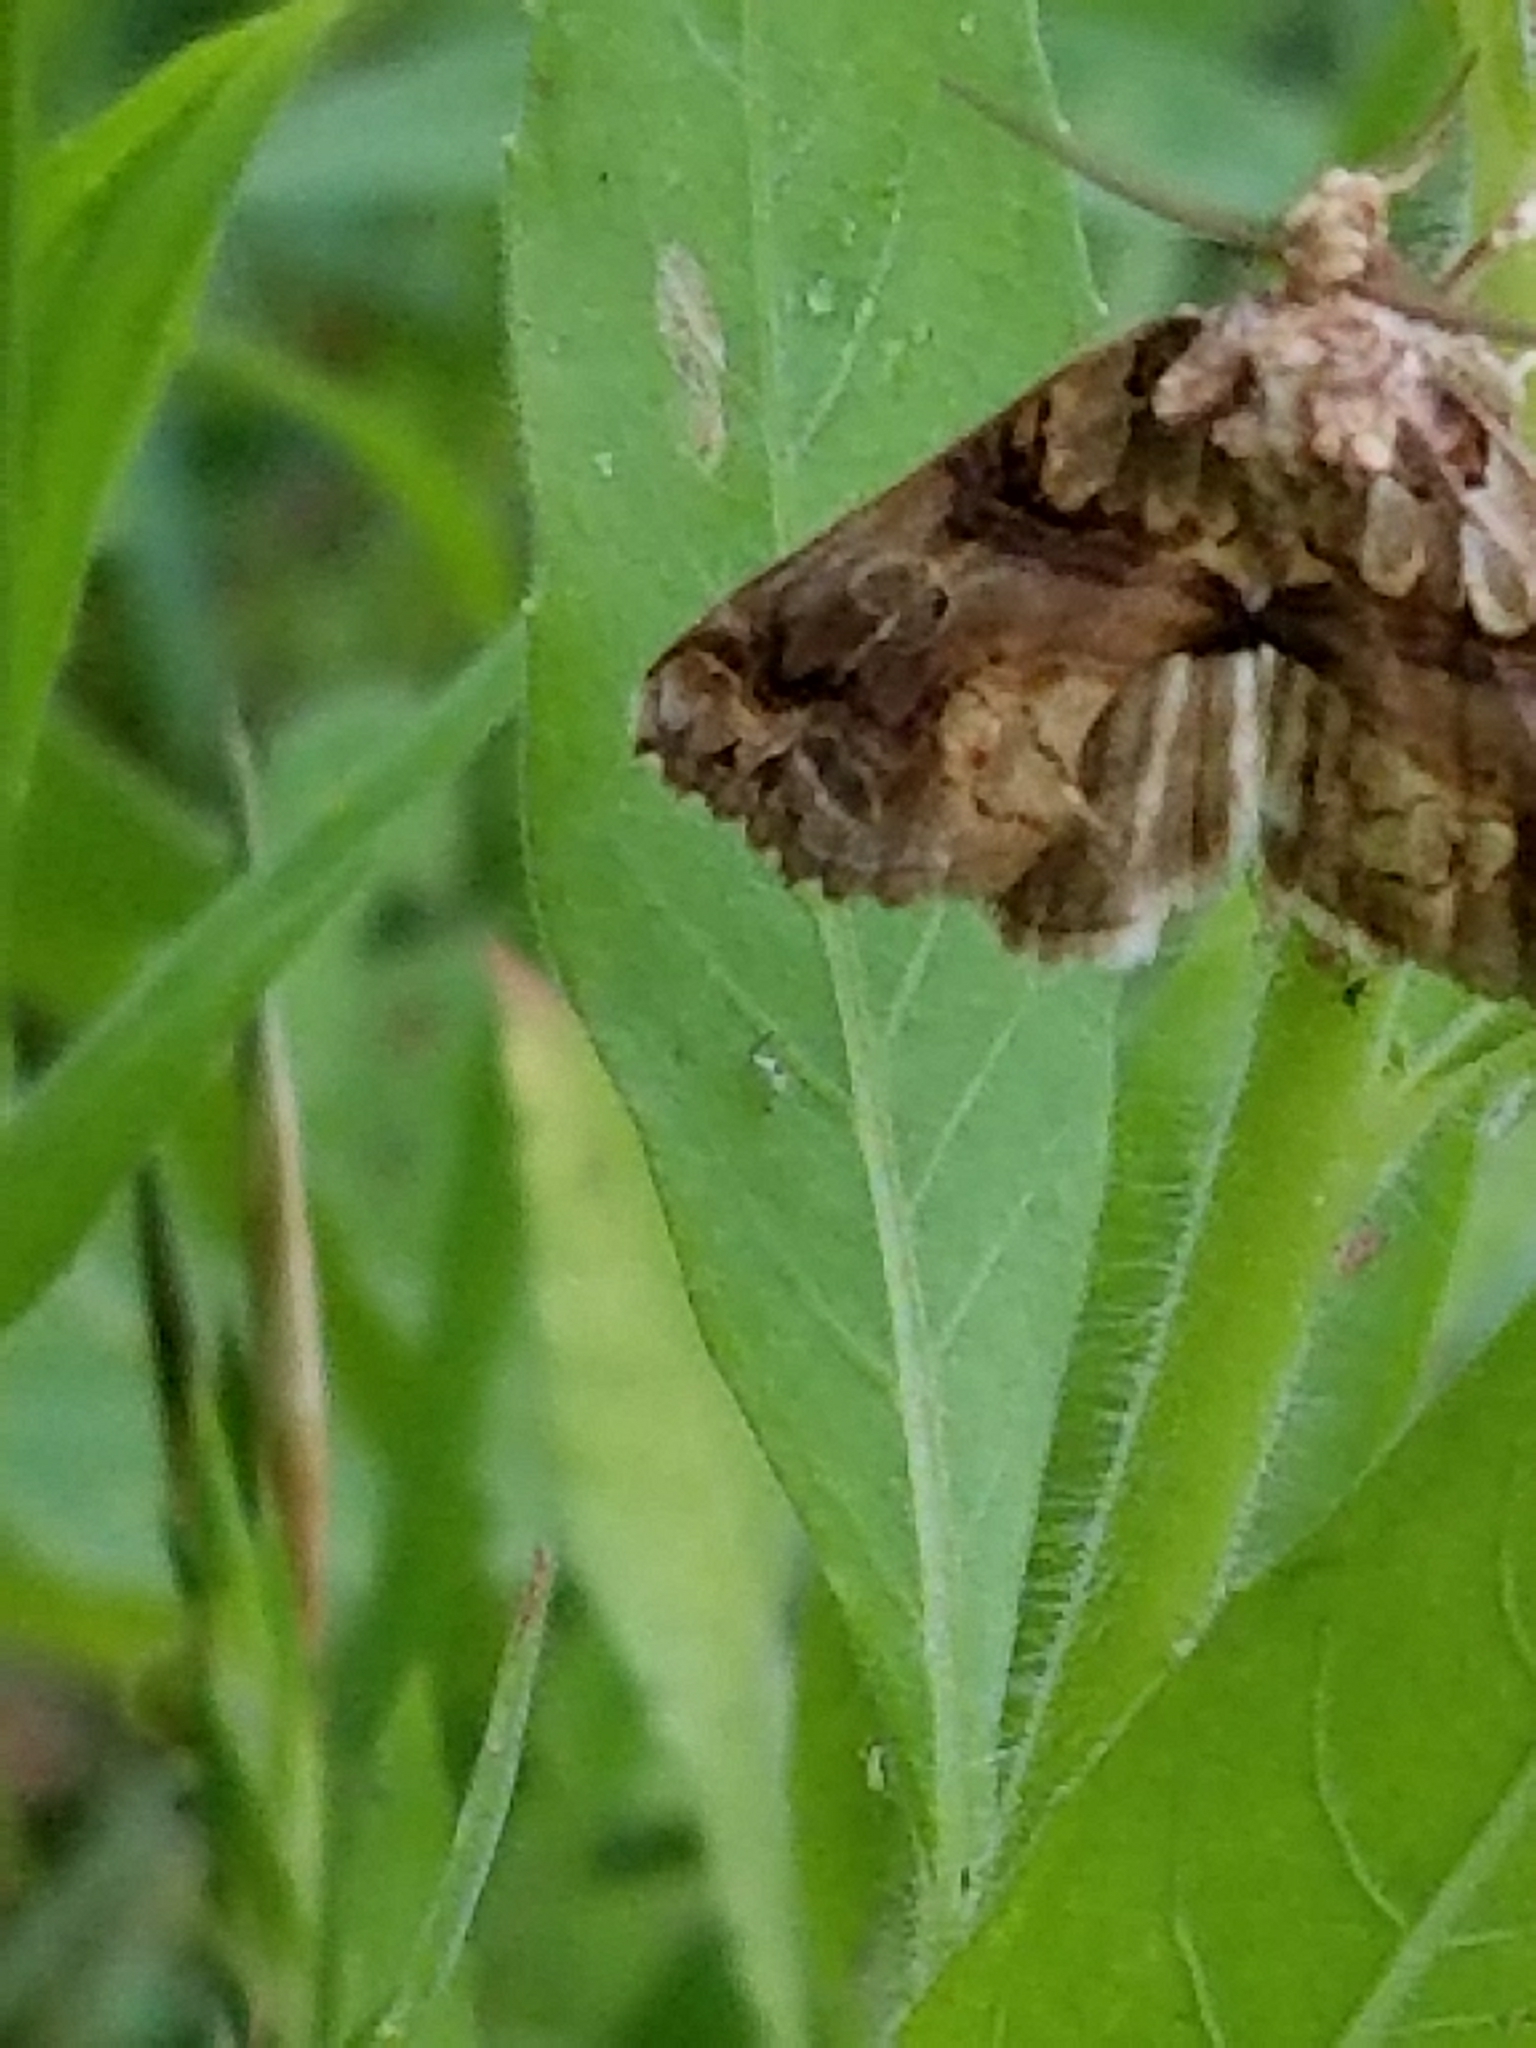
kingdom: Animalia
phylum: Arthropoda
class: Insecta
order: Lepidoptera
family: Erebidae
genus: Plusiodonta
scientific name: Plusiodonta compressipalpis
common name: Moonseed moth
